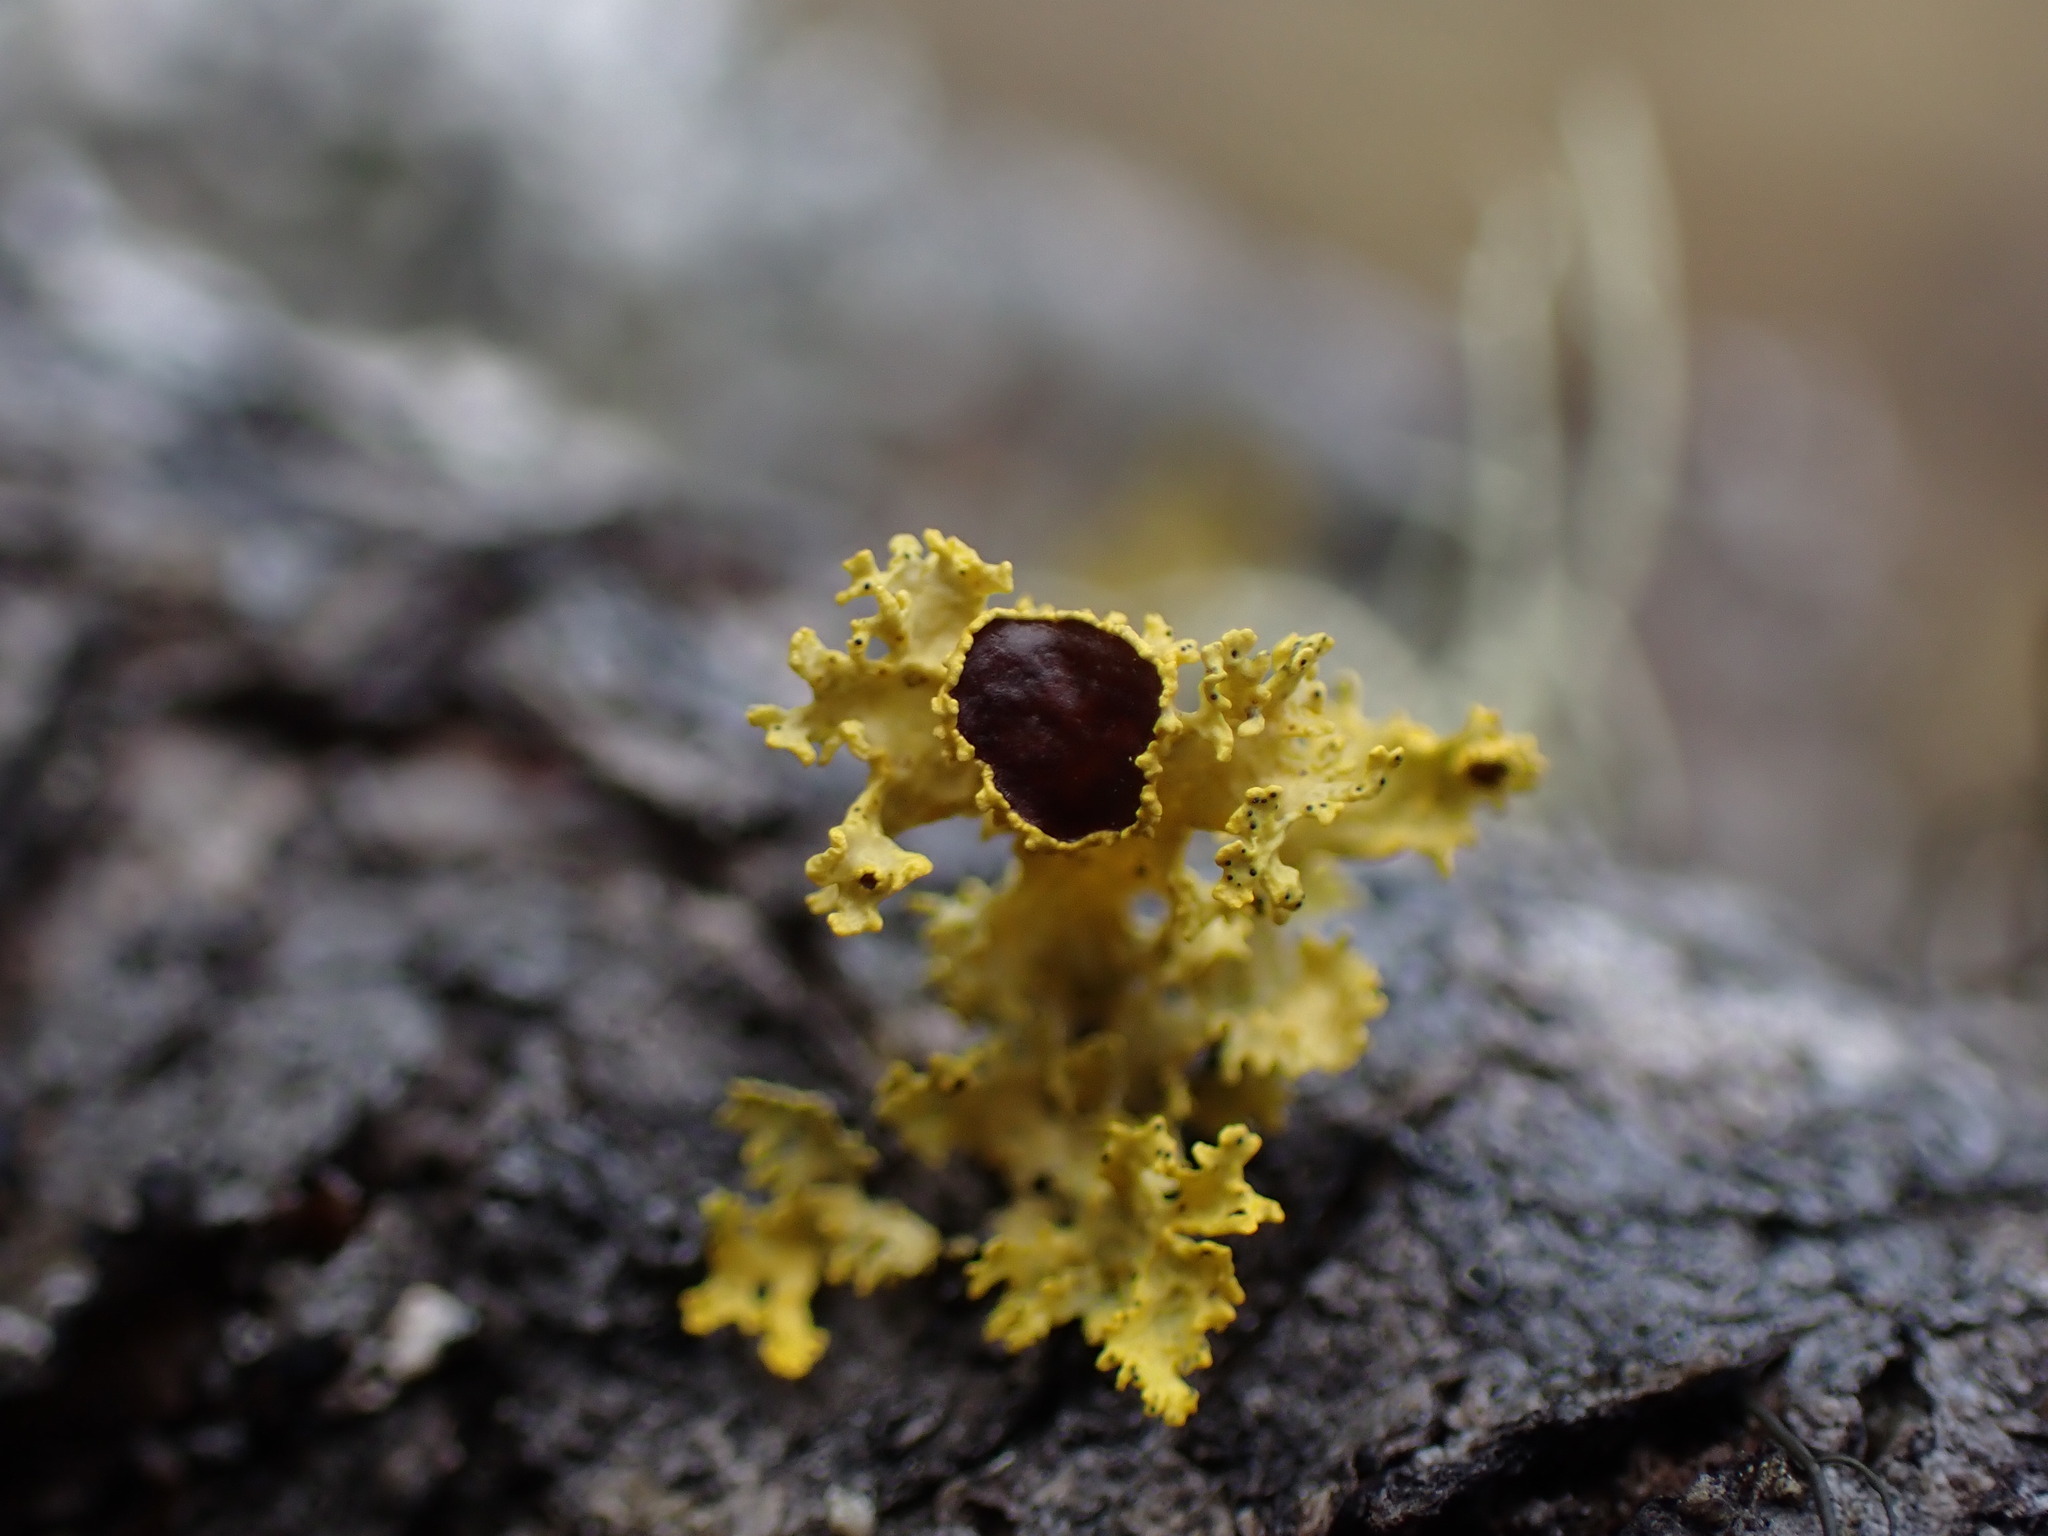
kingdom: Fungi
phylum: Ascomycota
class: Lecanoromycetes
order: Lecanorales
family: Parmeliaceae
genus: Vulpicida
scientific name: Vulpicida canadensis
